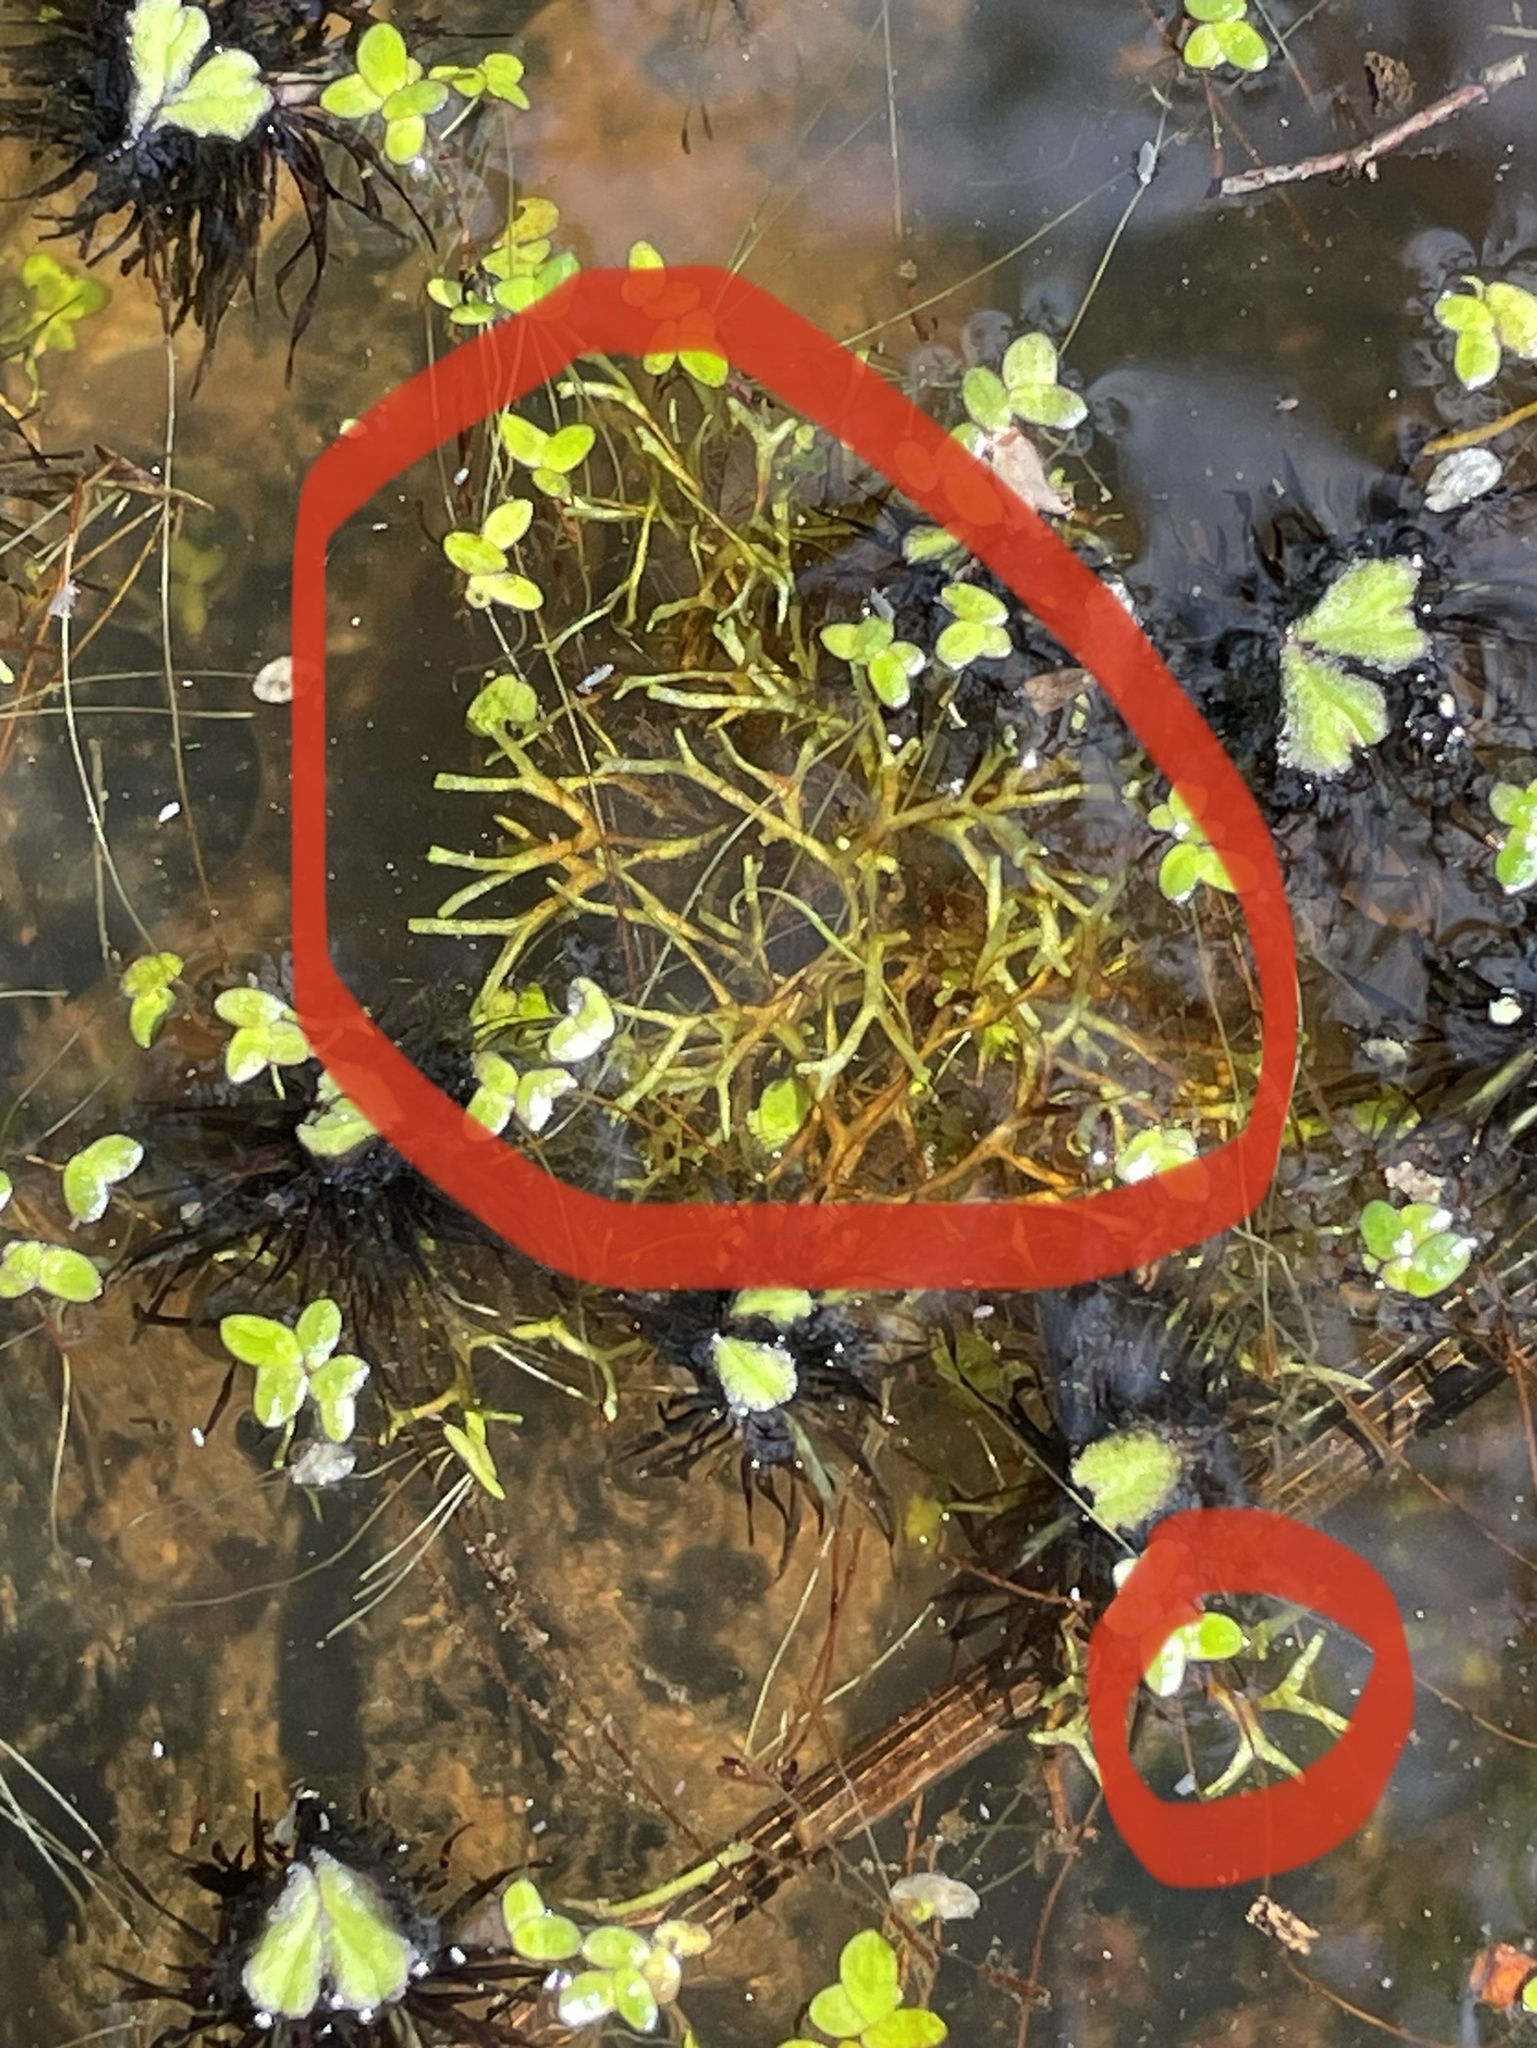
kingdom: Plantae
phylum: Marchantiophyta
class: Marchantiopsida
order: Marchantiales
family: Ricciaceae
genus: Riccia
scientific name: Riccia fluitans
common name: Floating crystalwort
